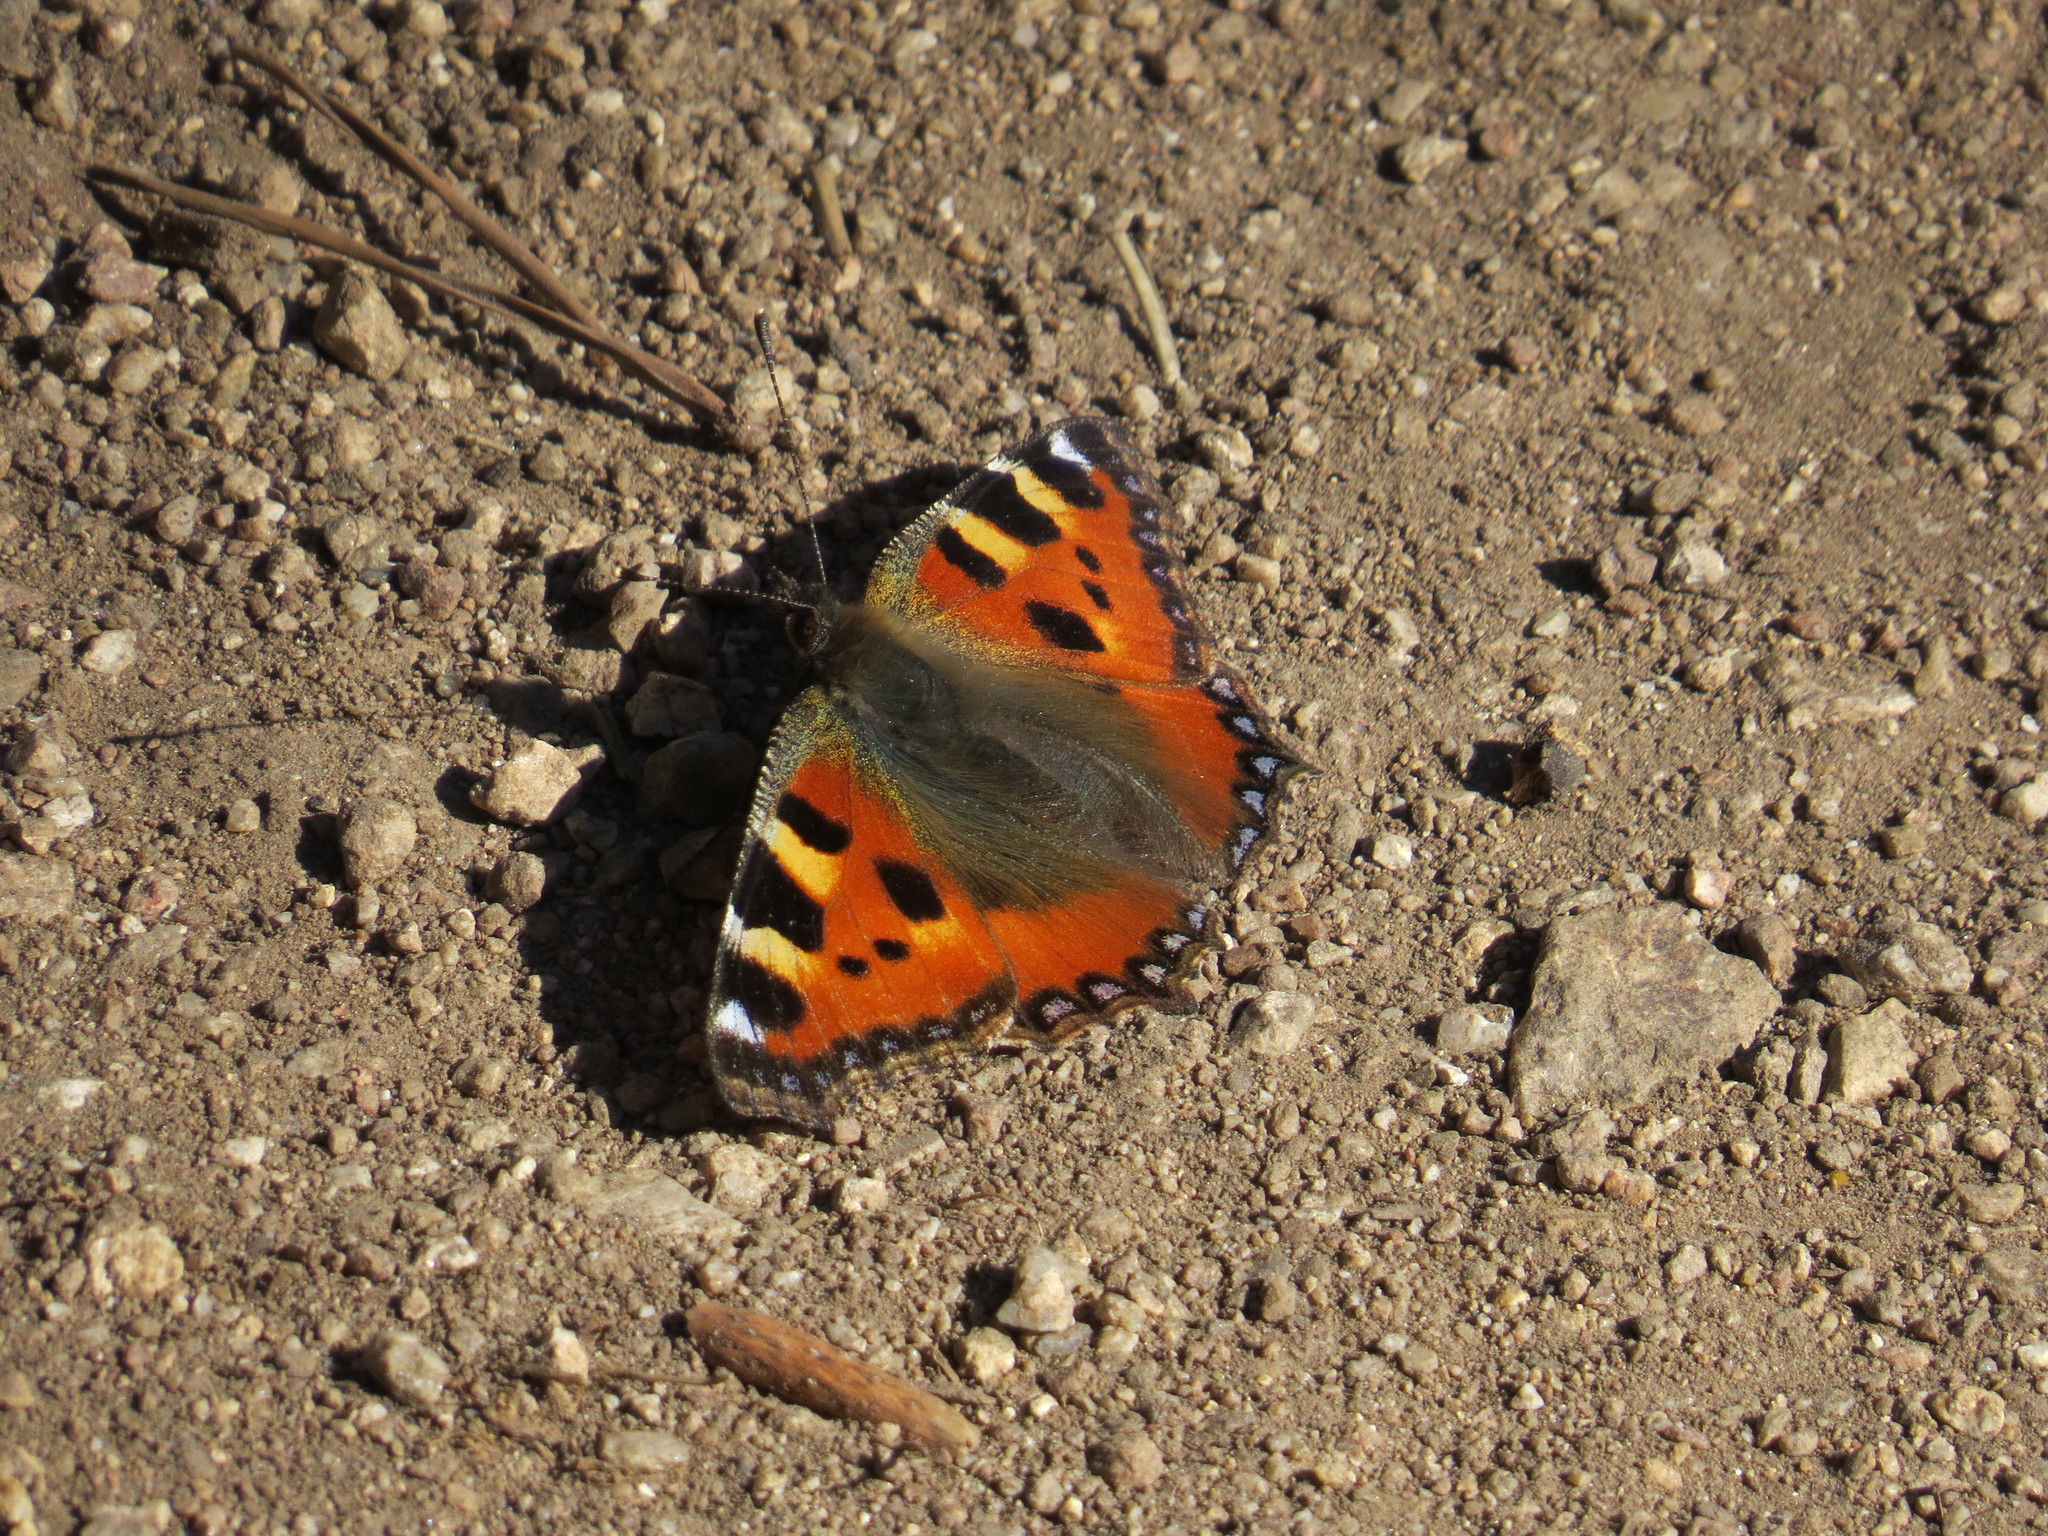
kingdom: Animalia
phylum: Arthropoda
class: Insecta
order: Lepidoptera
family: Nymphalidae
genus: Aglais
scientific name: Aglais urticae
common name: Small tortoiseshell
